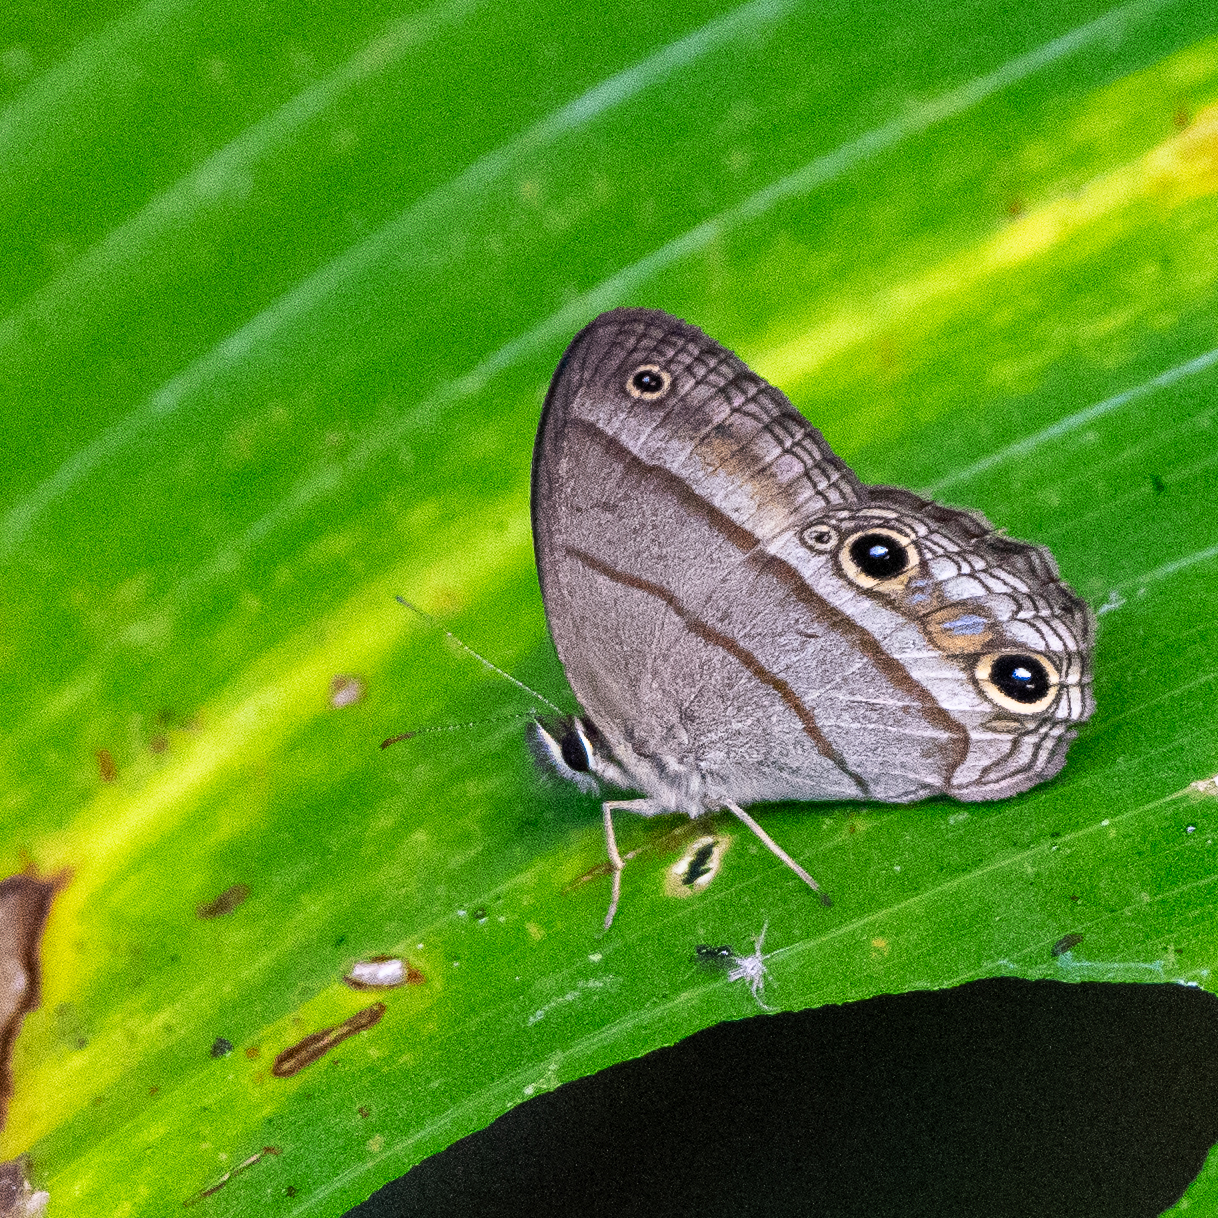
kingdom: Animalia
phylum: Arthropoda
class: Insecta
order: Lepidoptera
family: Nymphalidae
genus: Euptychia
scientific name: Euptychia Cissia pompilia
